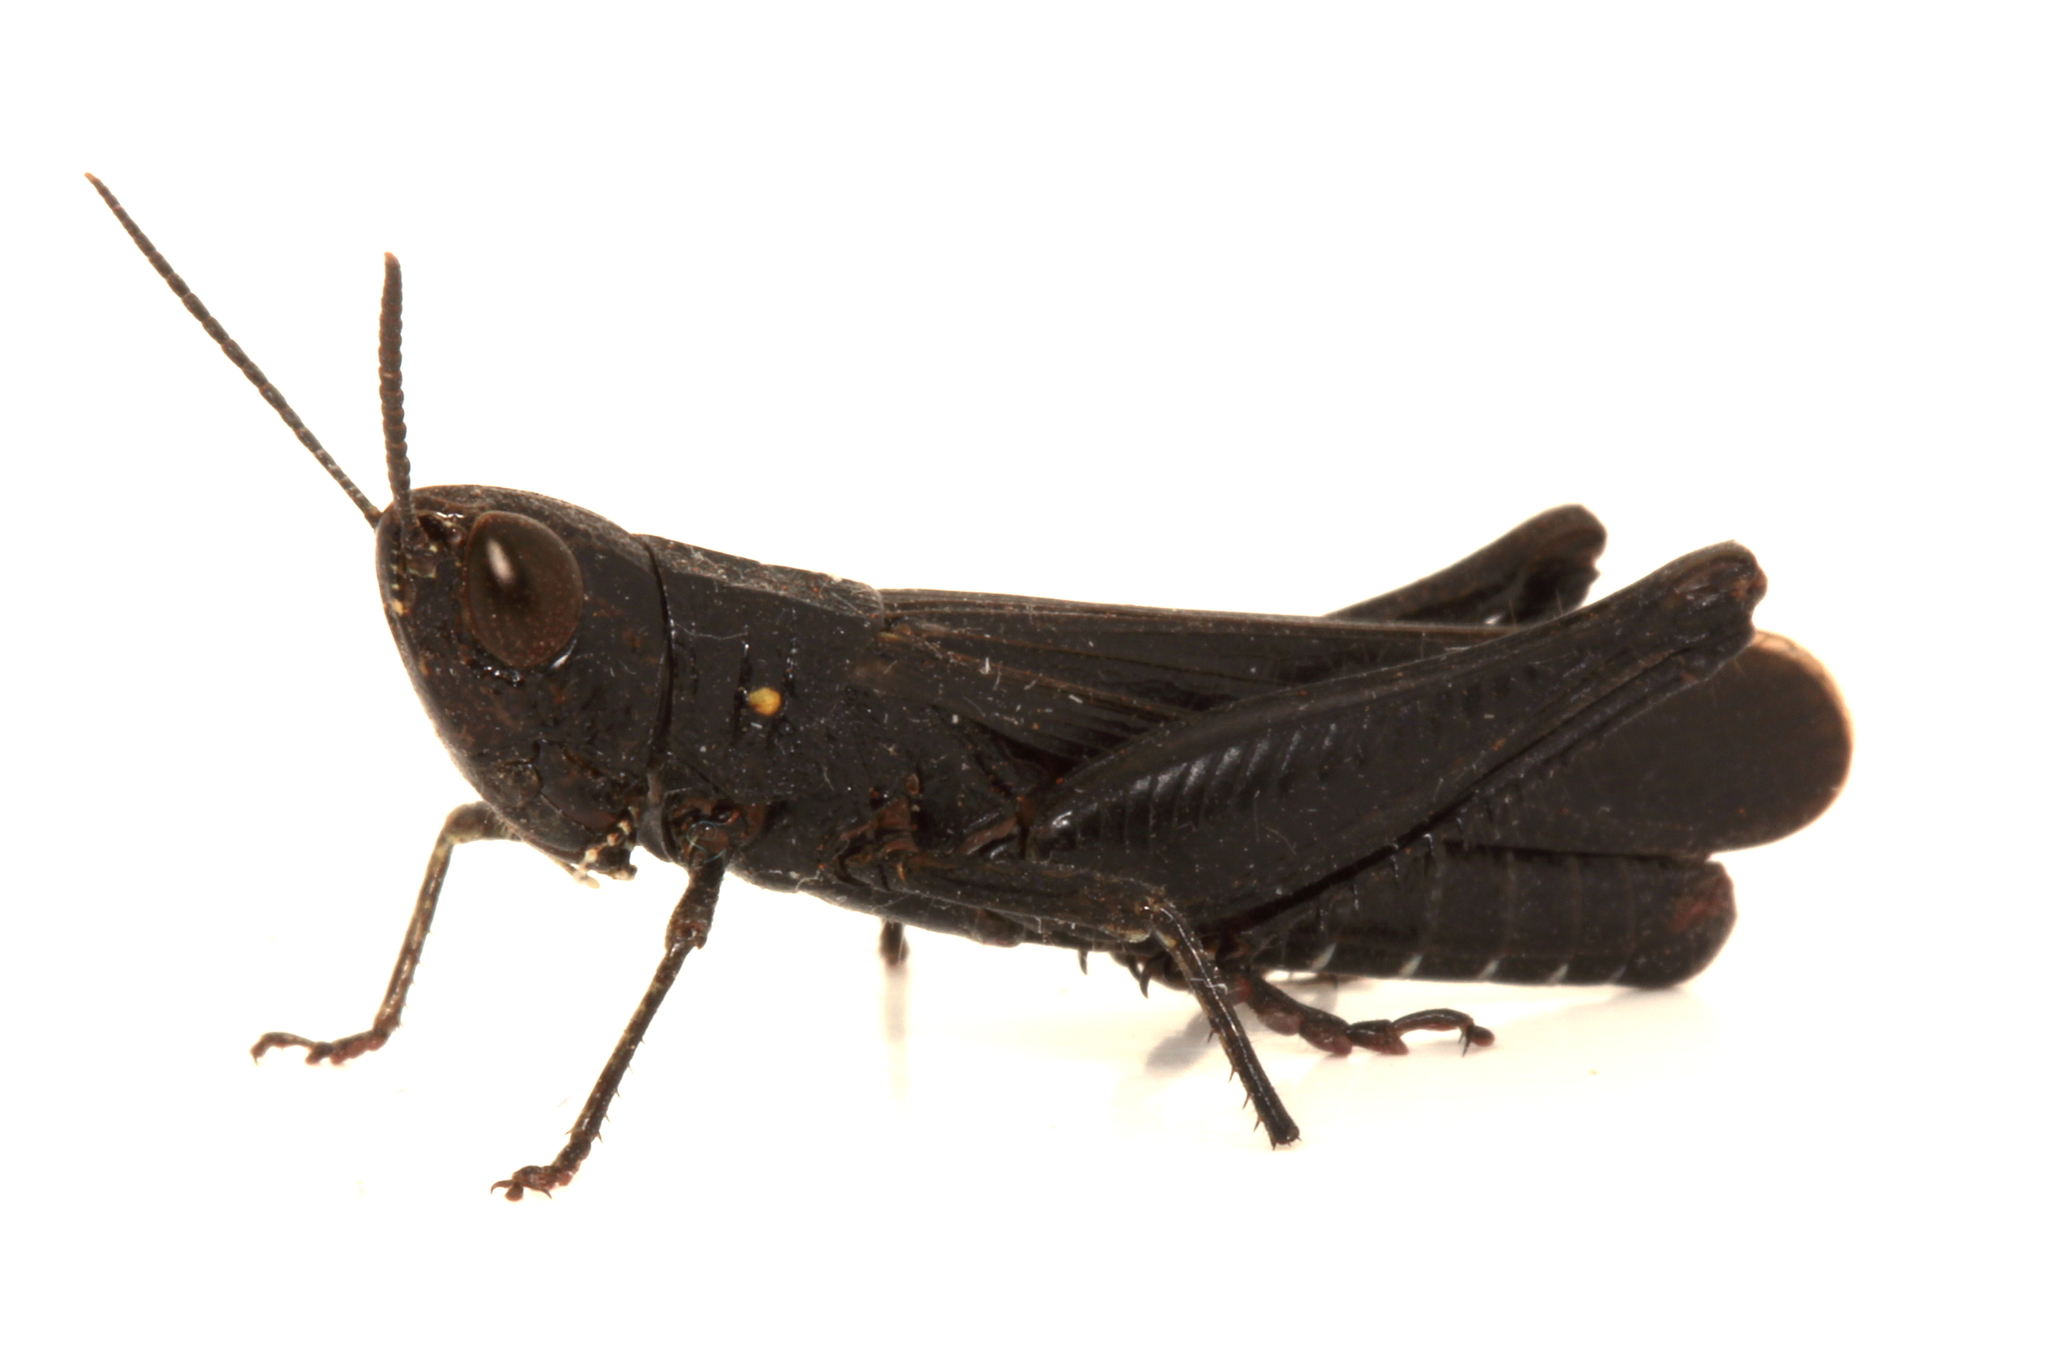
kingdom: Animalia
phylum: Arthropoda
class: Insecta
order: Orthoptera
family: Acrididae
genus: Rusurplia
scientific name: Rusurplia tristis
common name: Black grasshopper
